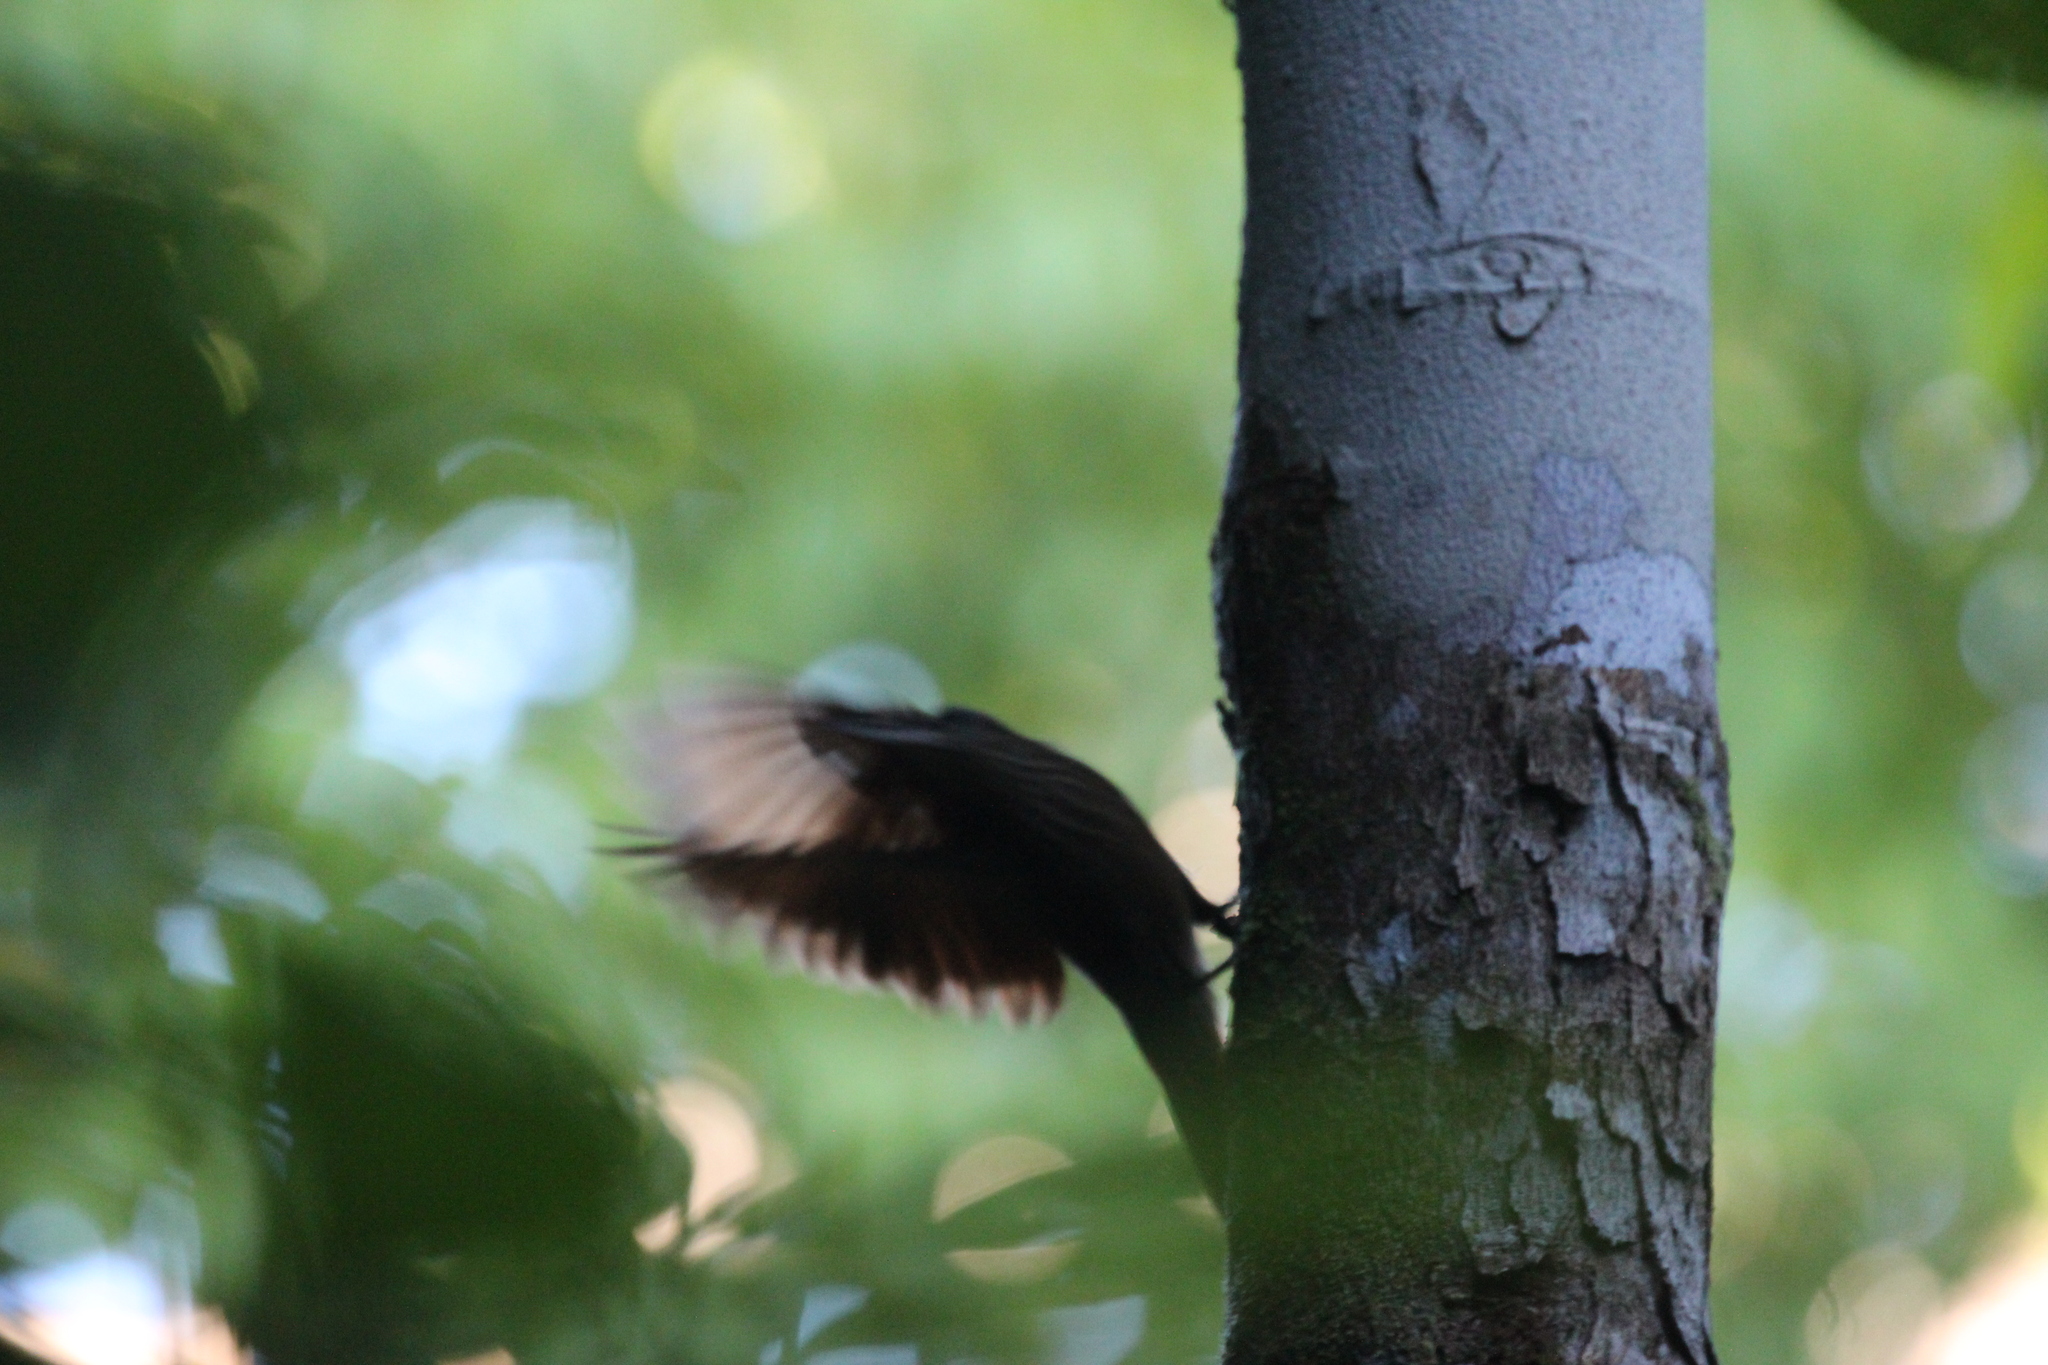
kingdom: Animalia
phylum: Chordata
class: Aves
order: Passeriformes
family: Furnariidae
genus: Xiphorhynchus
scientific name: Xiphorhynchus susurrans
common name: Cocoa woodcreeper
